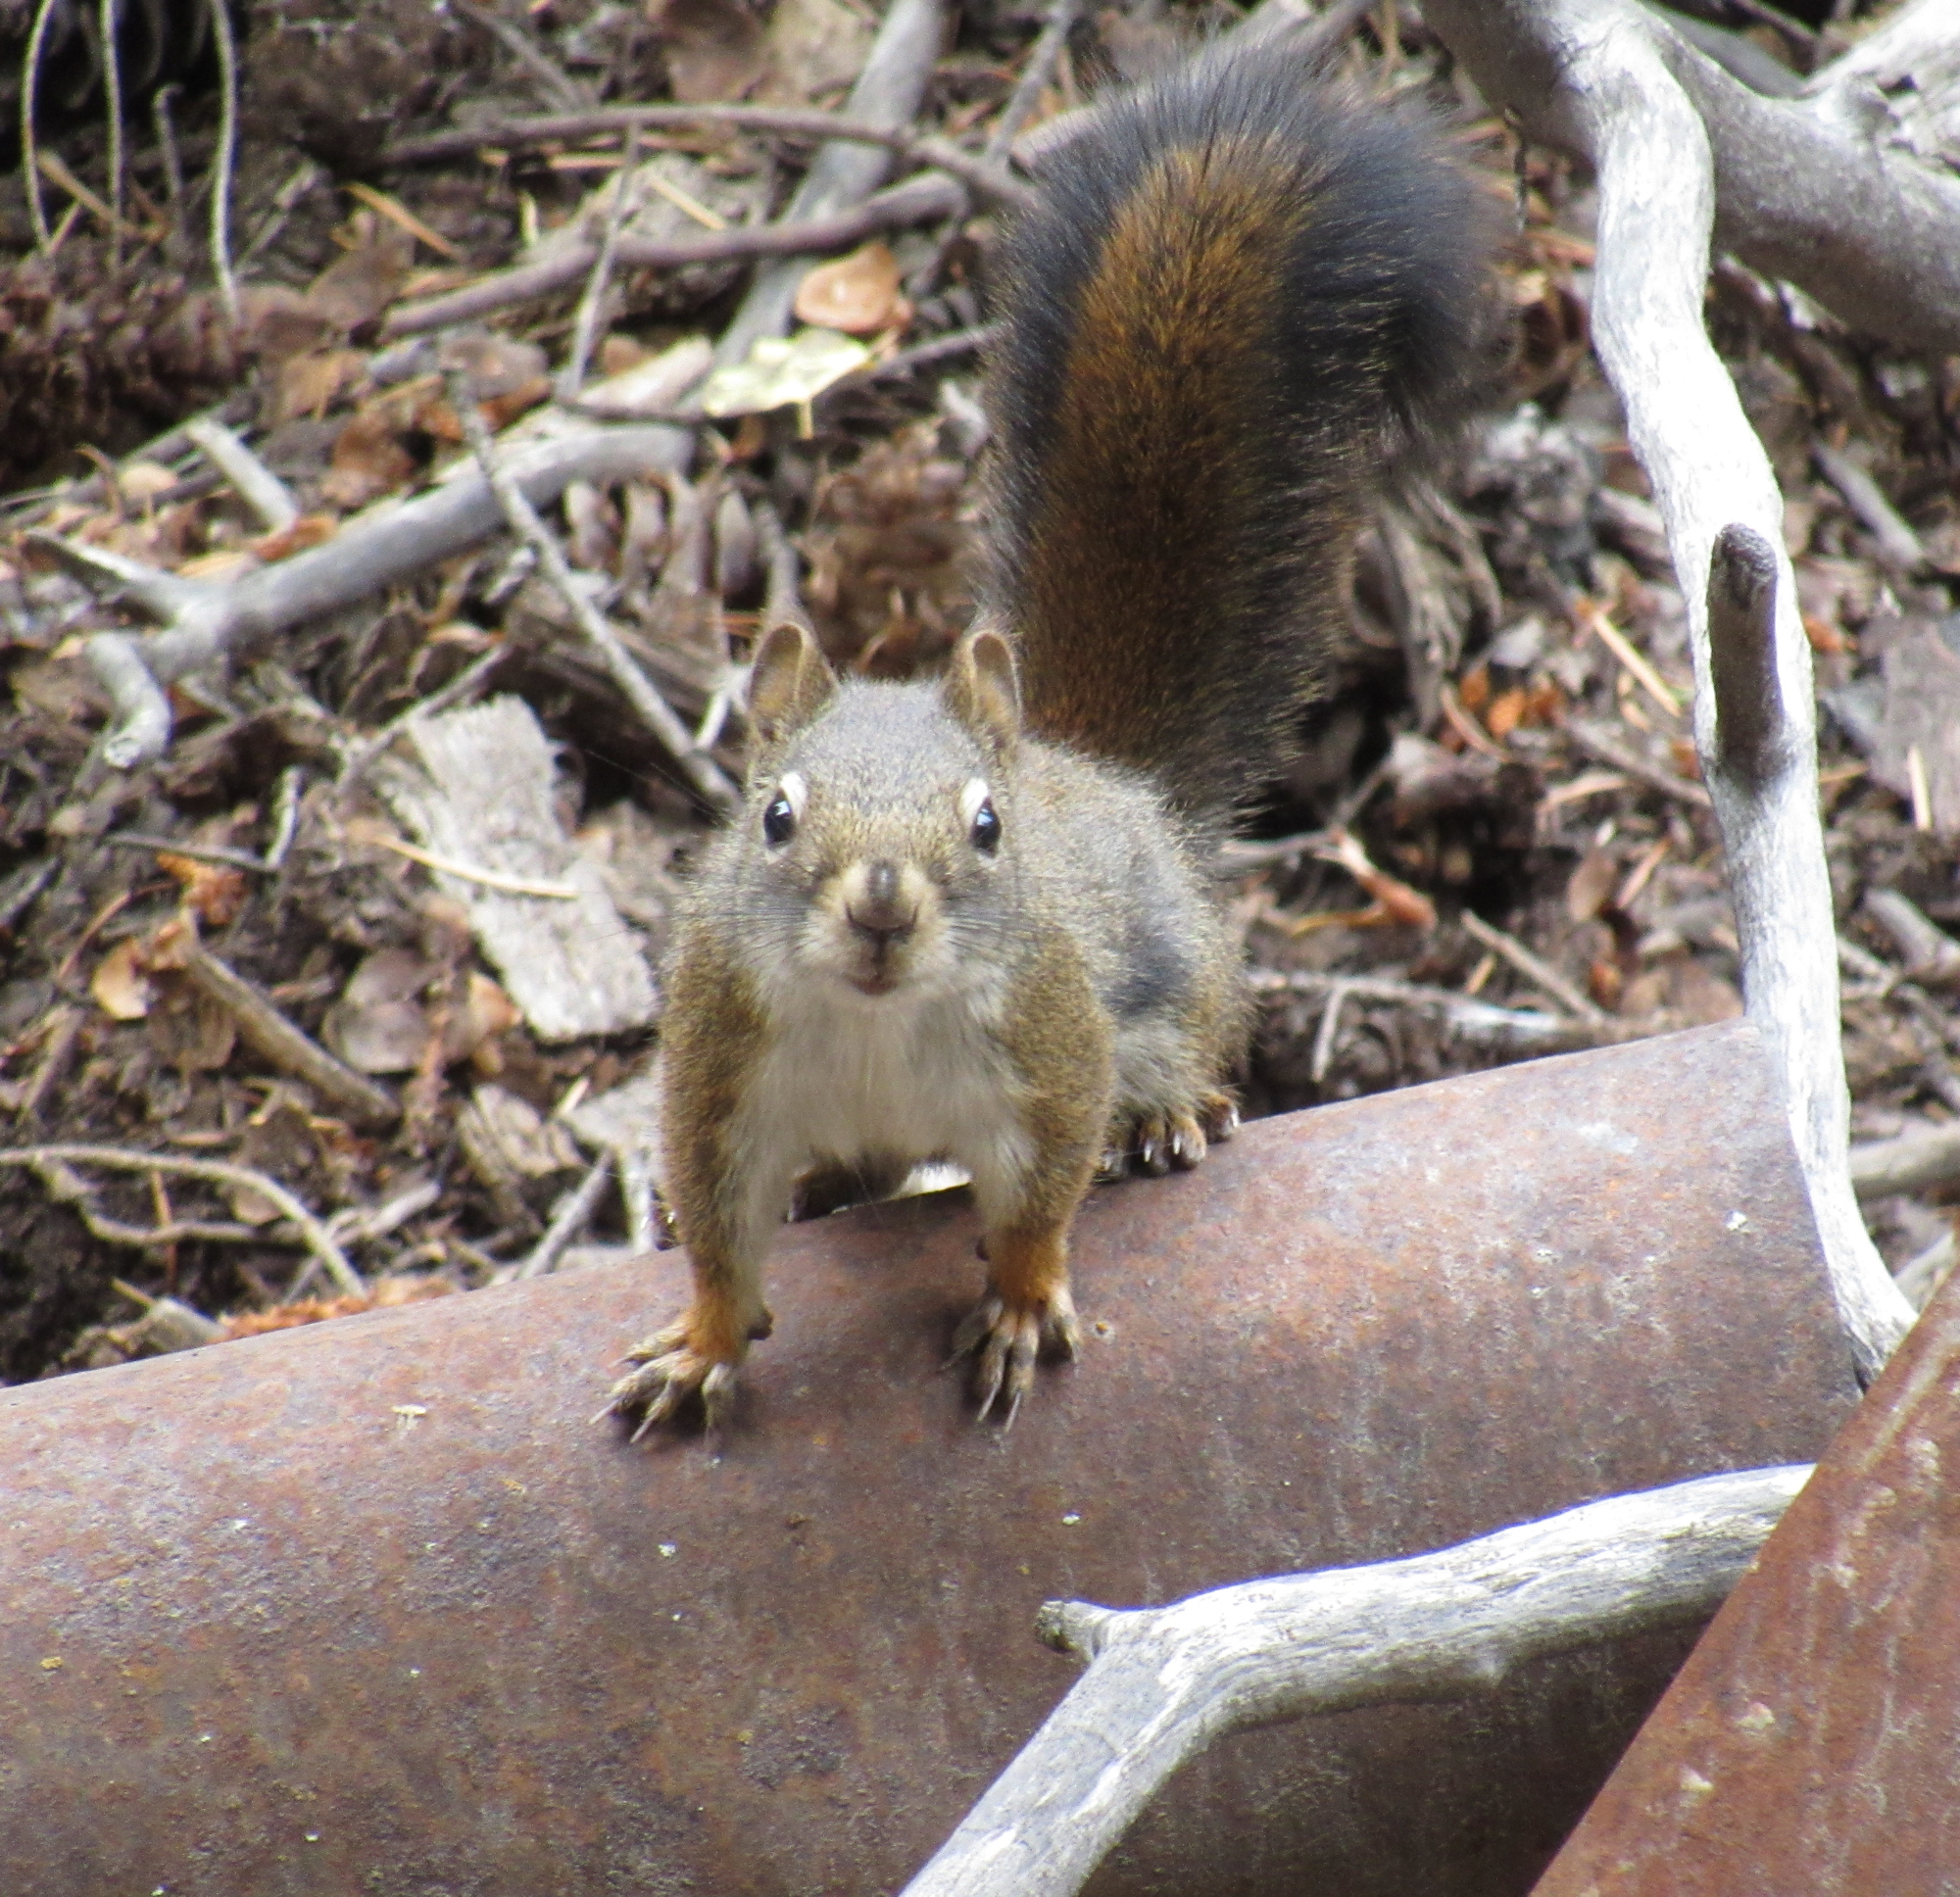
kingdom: Animalia
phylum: Chordata
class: Mammalia
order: Rodentia
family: Sciuridae
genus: Tamiasciurus
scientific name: Tamiasciurus hudsonicus
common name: Red squirrel
